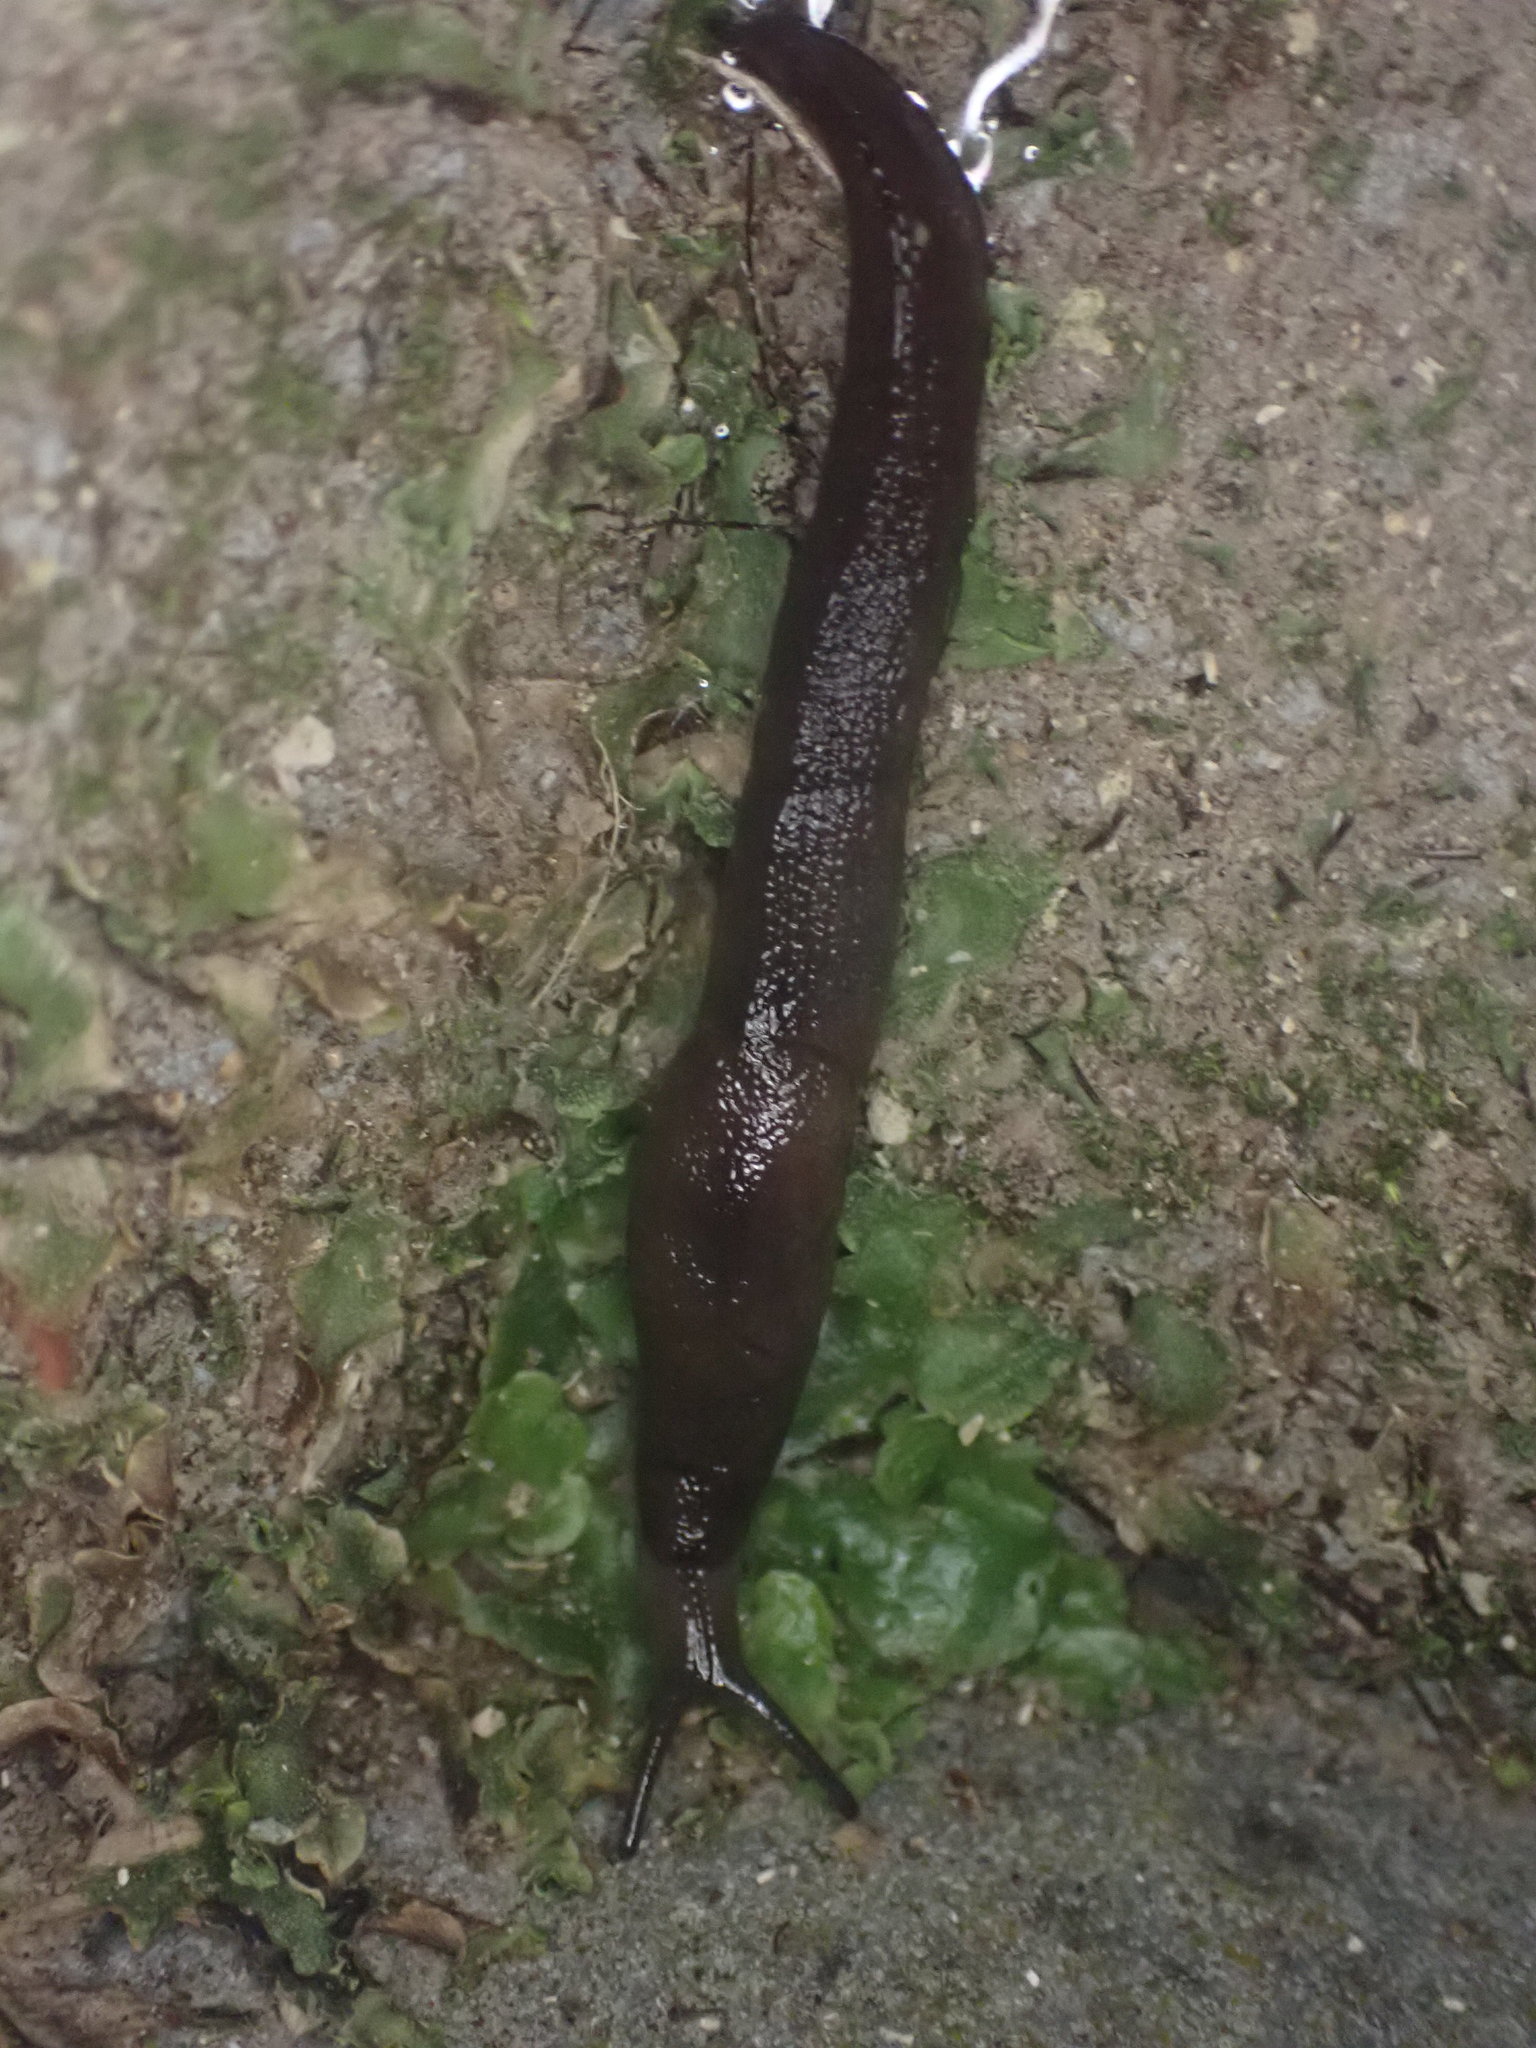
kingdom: Animalia
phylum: Mollusca
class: Gastropoda
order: Stylommatophora
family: Milacidae
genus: Milax
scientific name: Milax gagates
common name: Greenhouse slug
